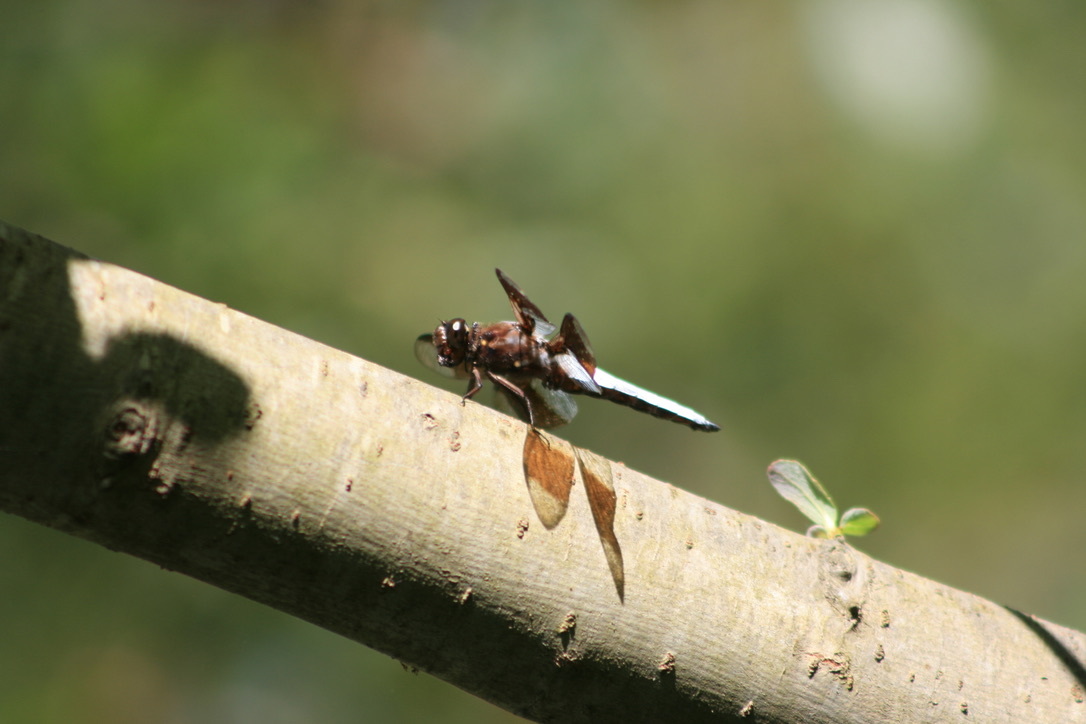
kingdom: Animalia
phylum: Arthropoda
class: Insecta
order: Odonata
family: Libellulidae
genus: Plathemis
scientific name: Plathemis lydia
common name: Common whitetail
